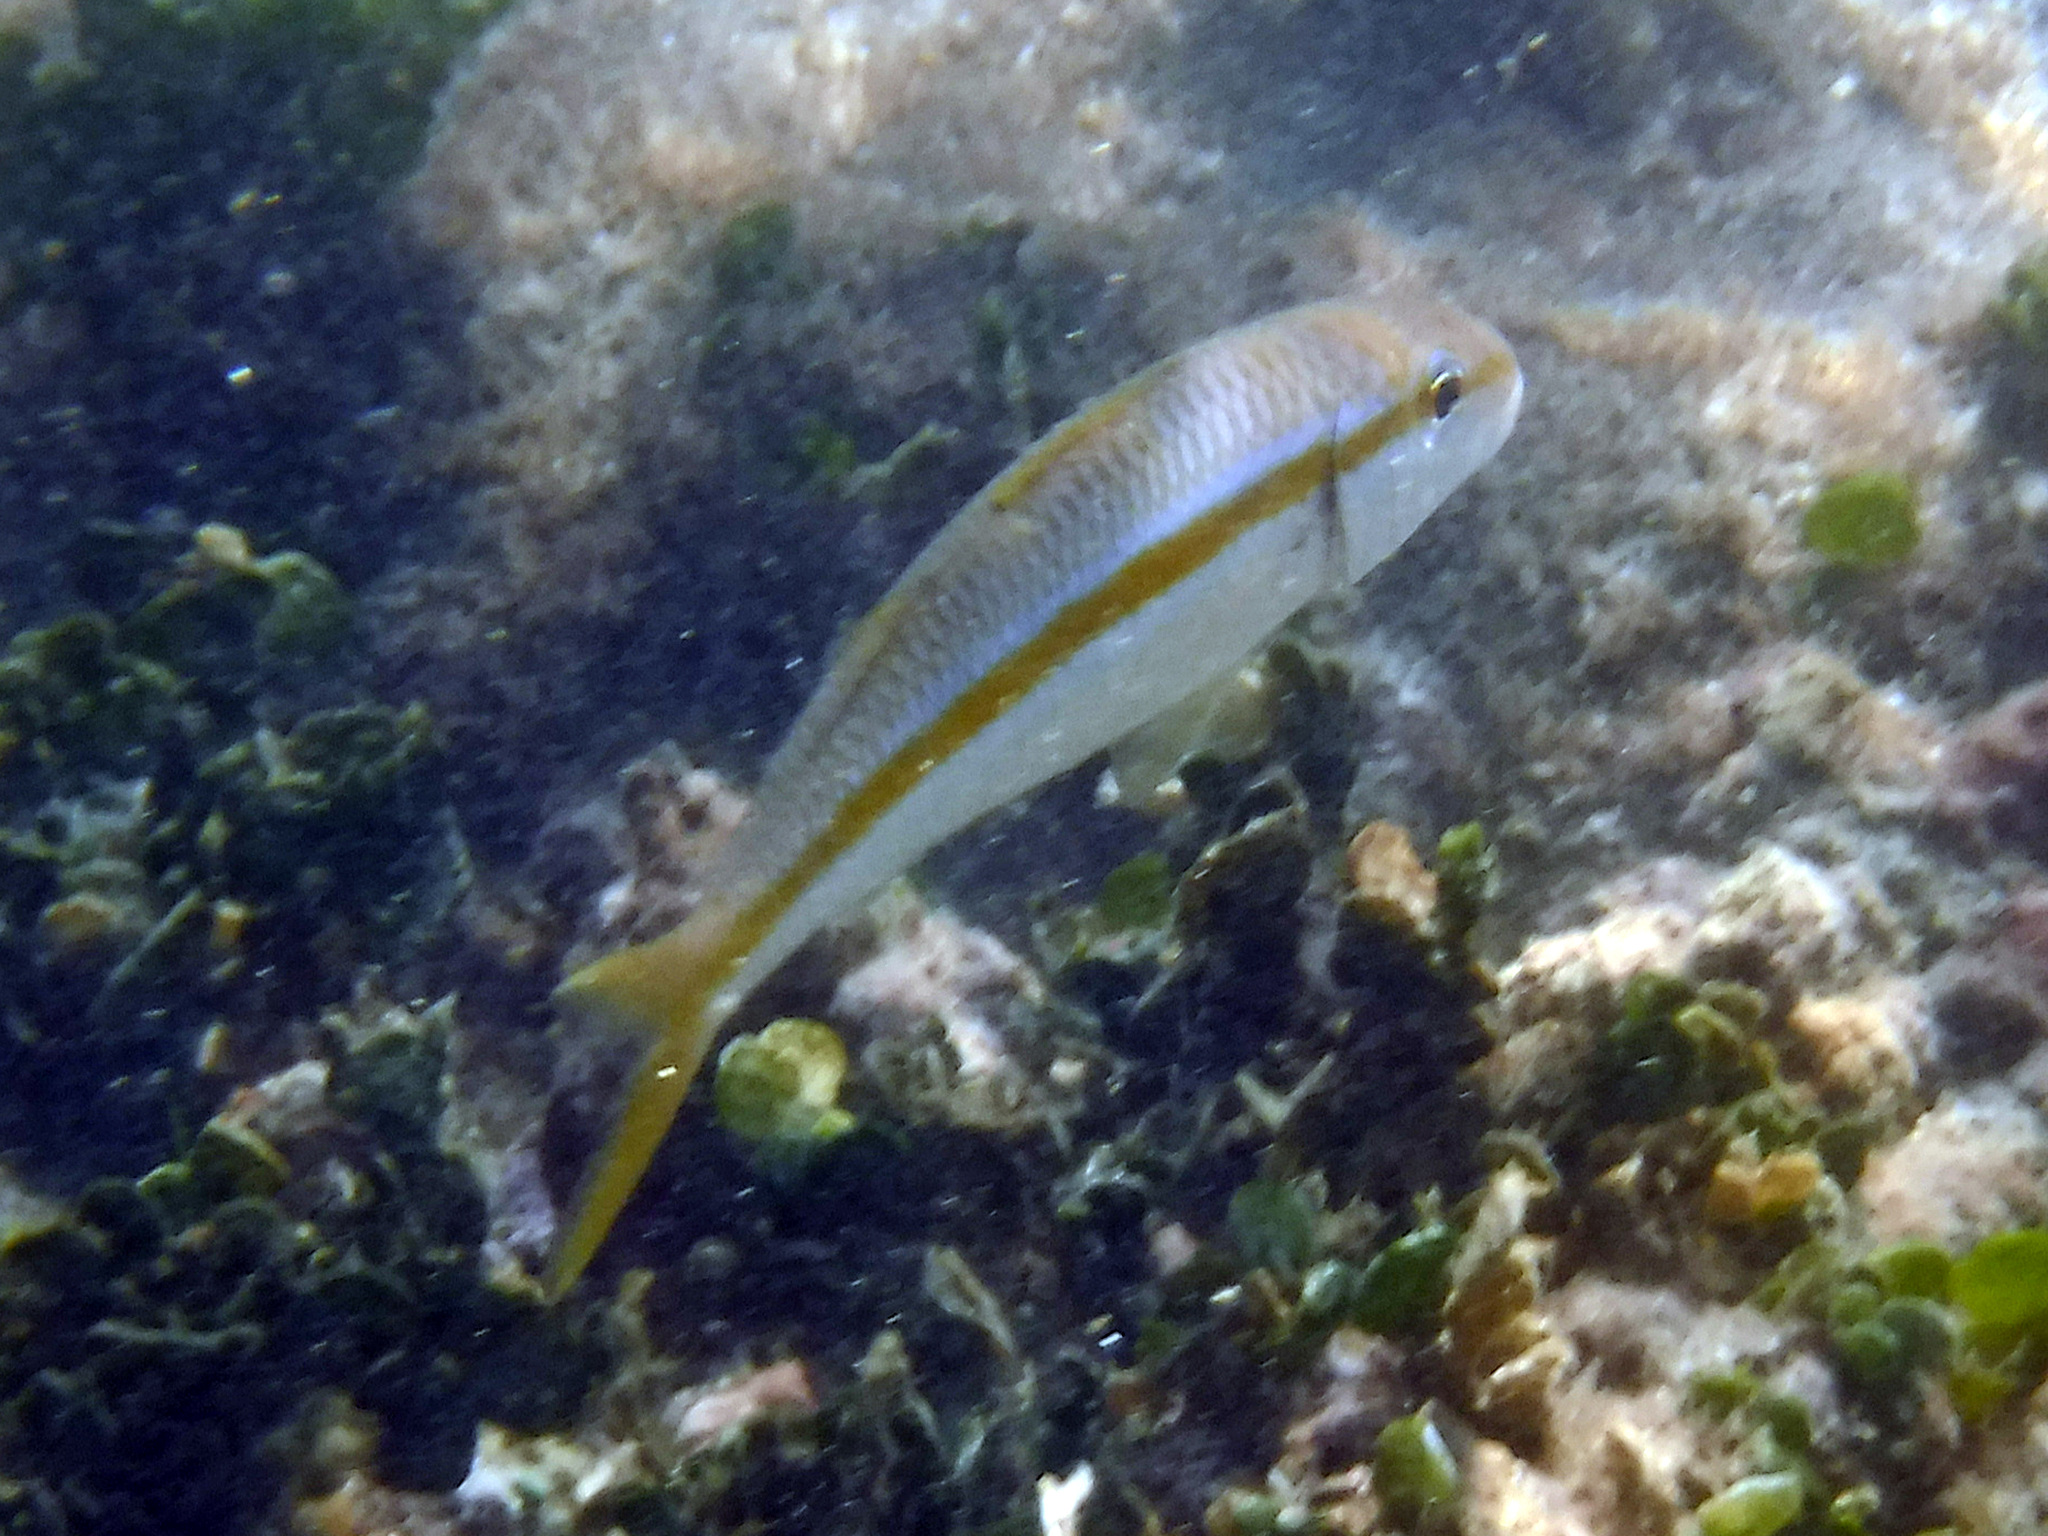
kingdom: Animalia
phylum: Chordata
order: Perciformes
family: Mullidae
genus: Mulloidichthys
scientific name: Mulloidichthys dentatus
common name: Mexican goatfish
